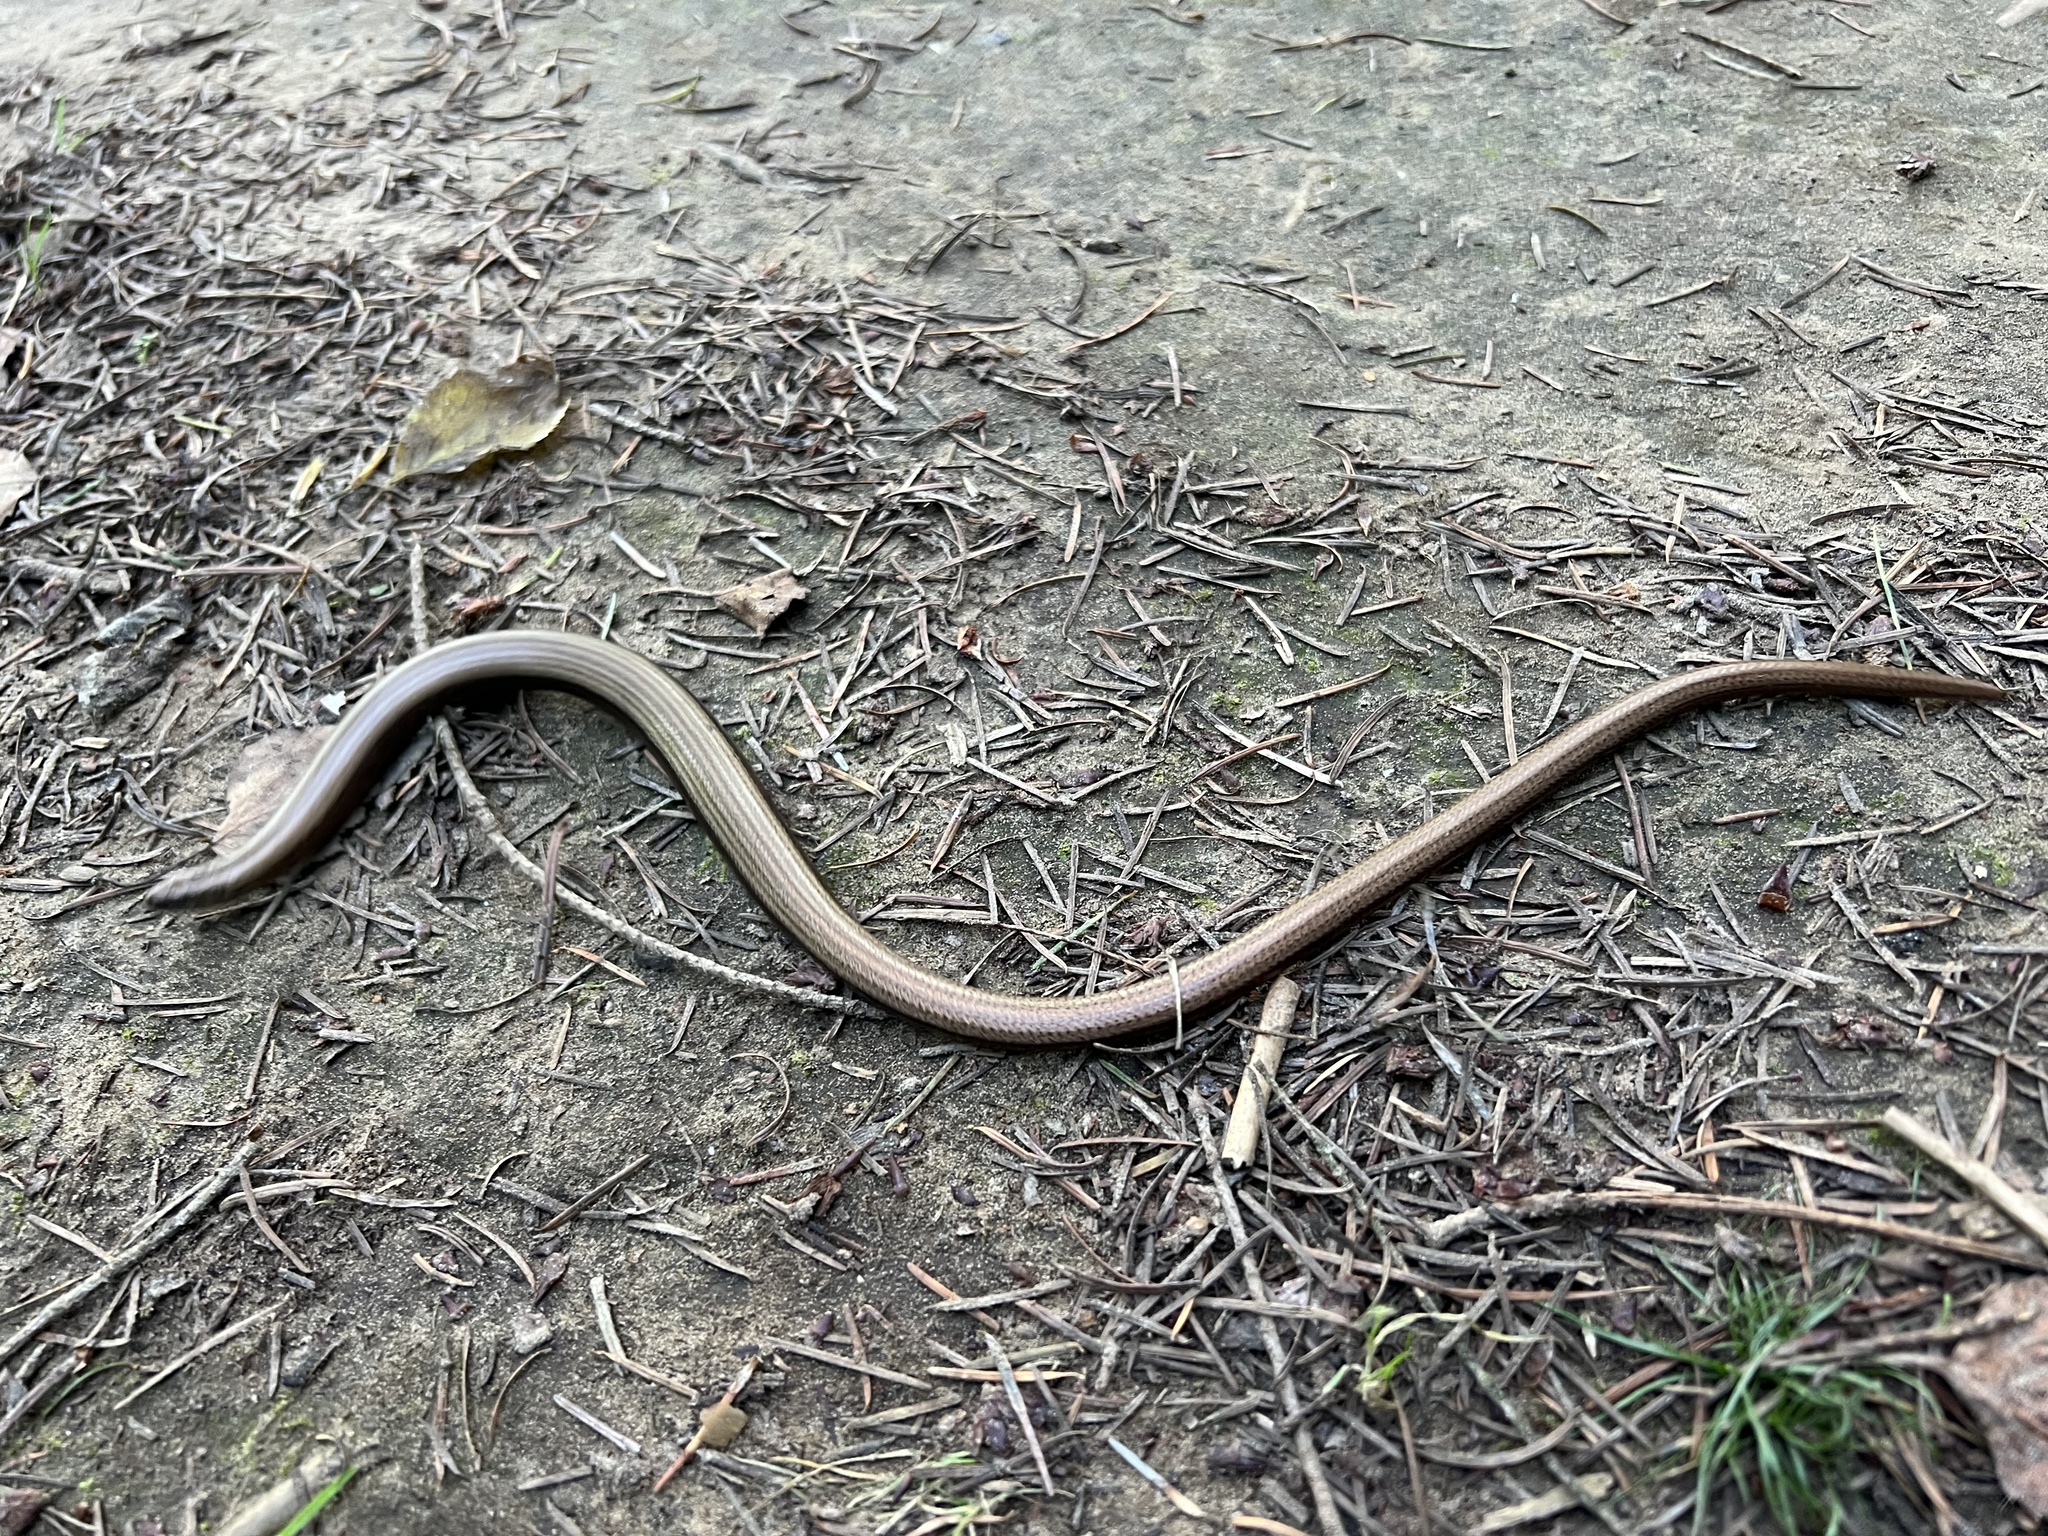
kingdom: Animalia
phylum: Chordata
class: Squamata
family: Anguidae
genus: Anguis
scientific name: Anguis fragilis
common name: Slow worm
